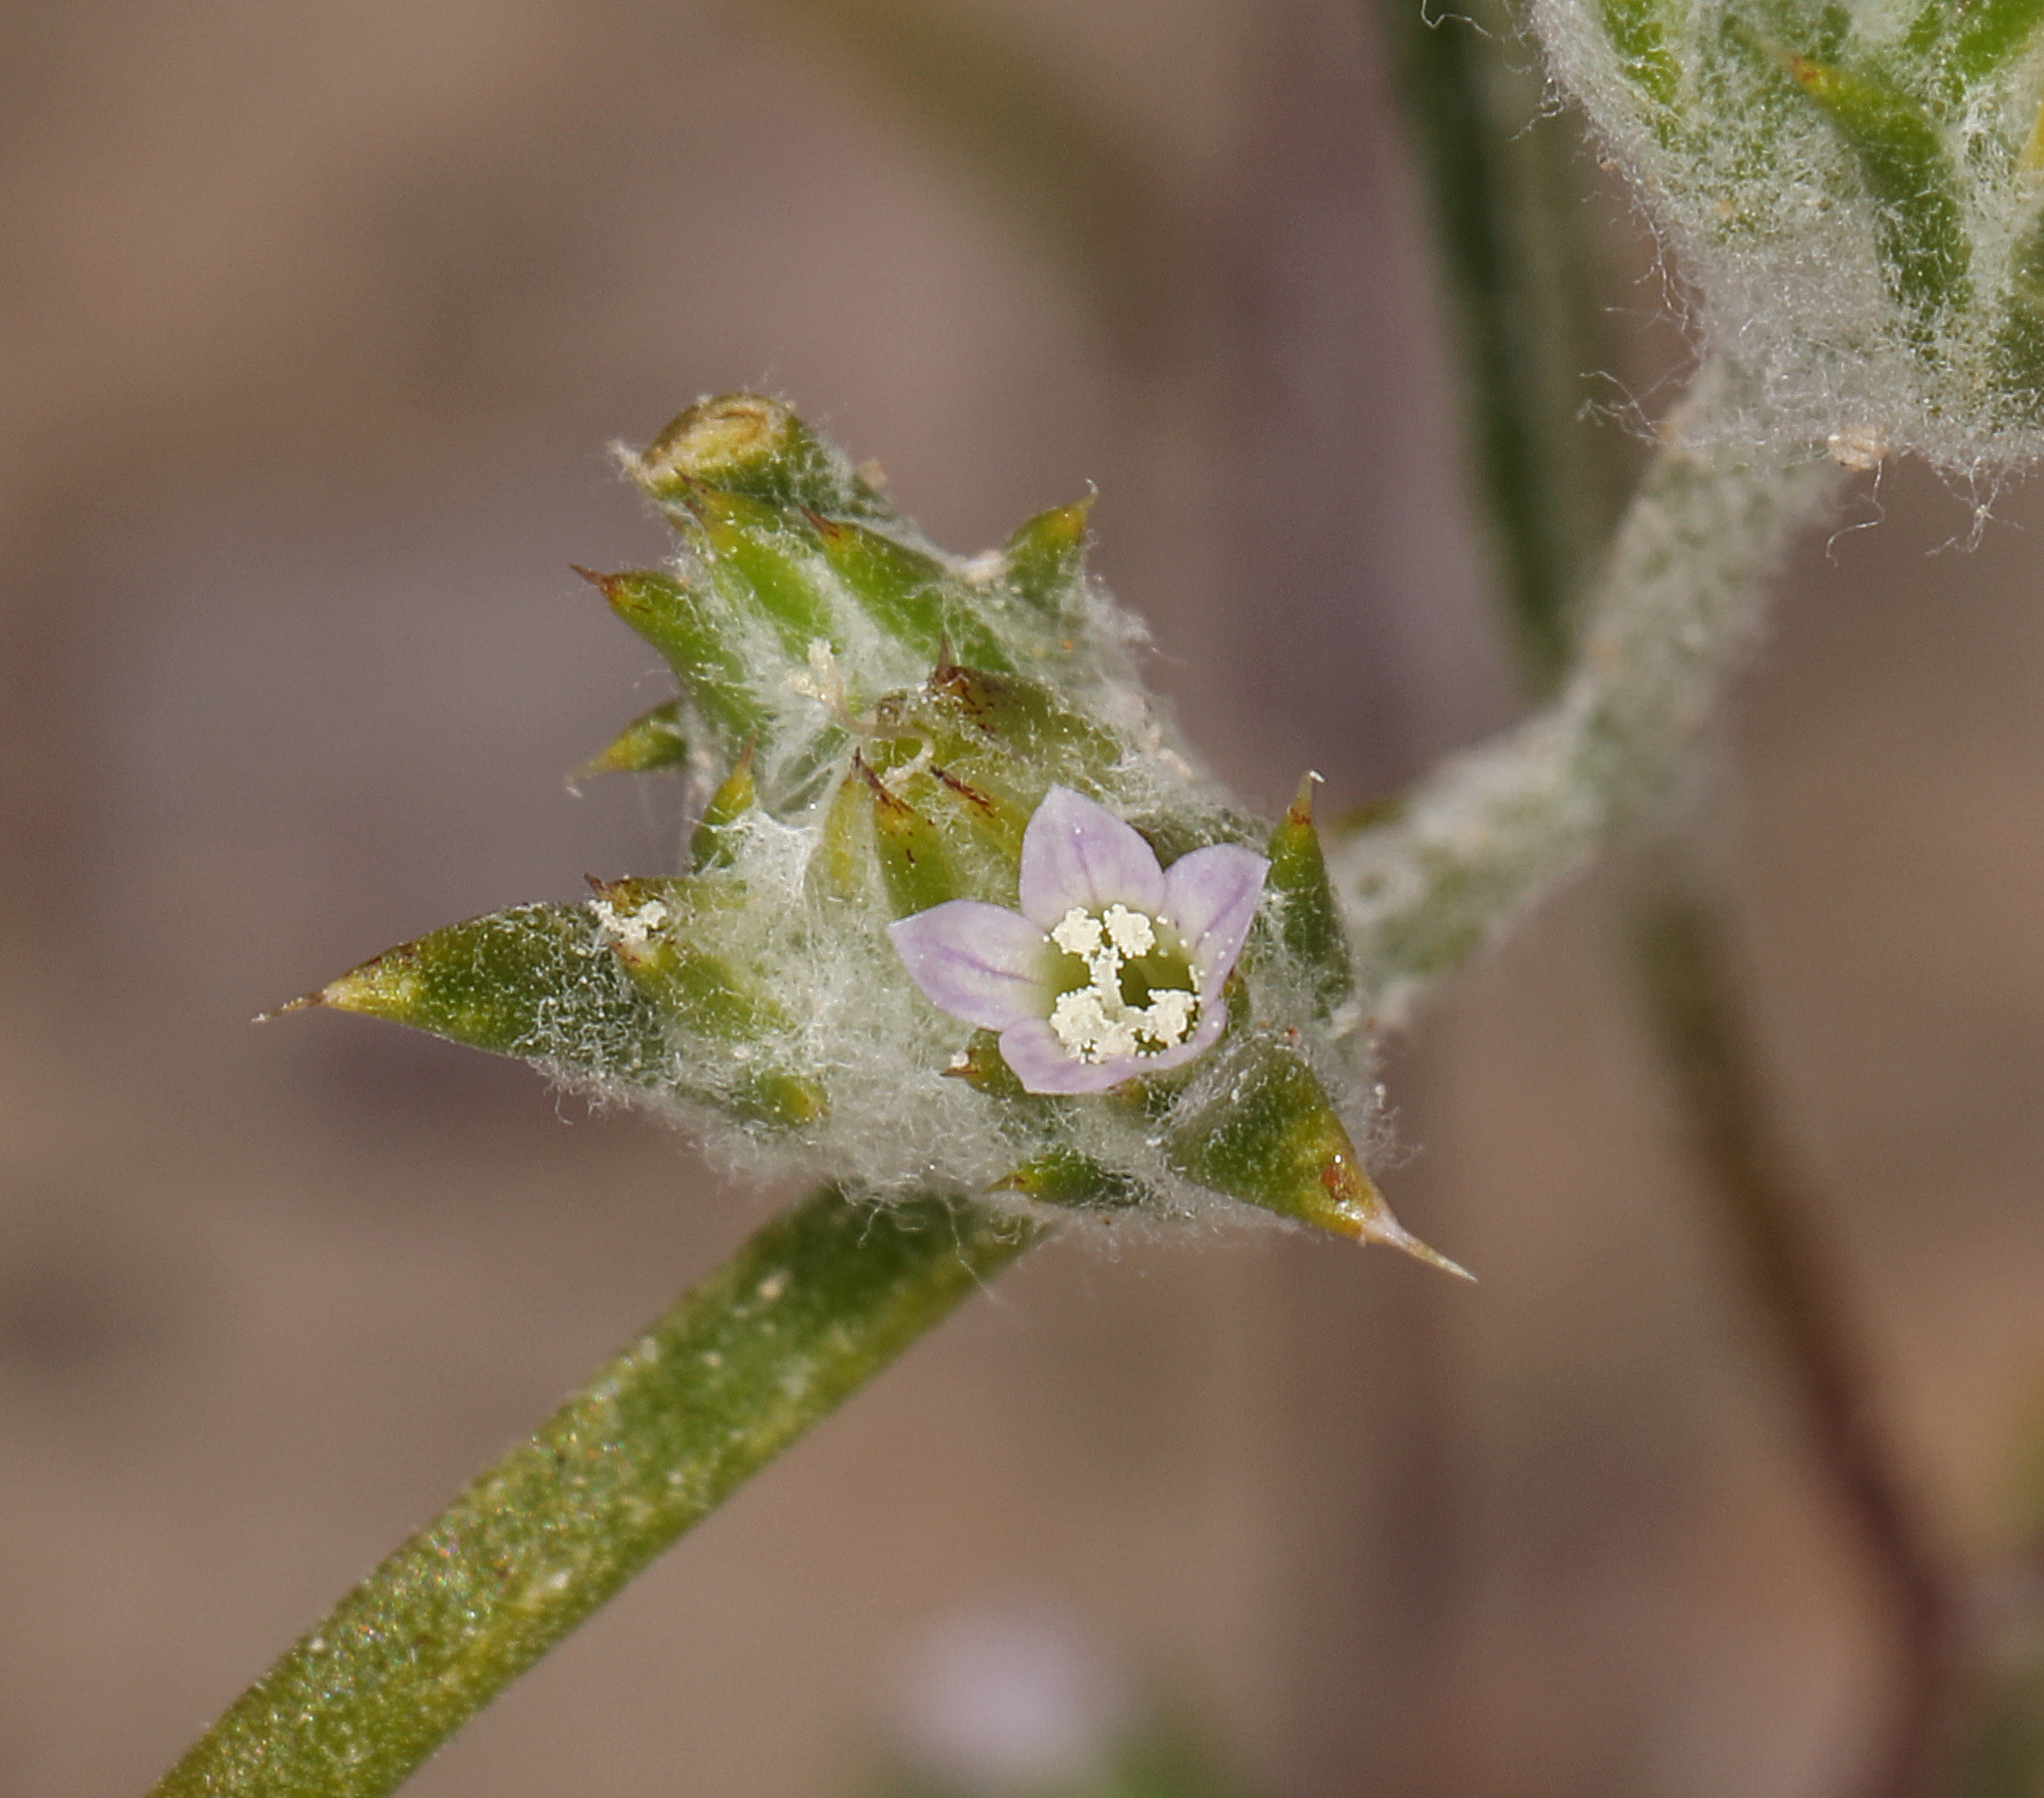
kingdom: Plantae
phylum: Tracheophyta
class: Magnoliopsida
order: Ericales
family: Polemoniaceae
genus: Eriastrum
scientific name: Eriastrum rosamondense
